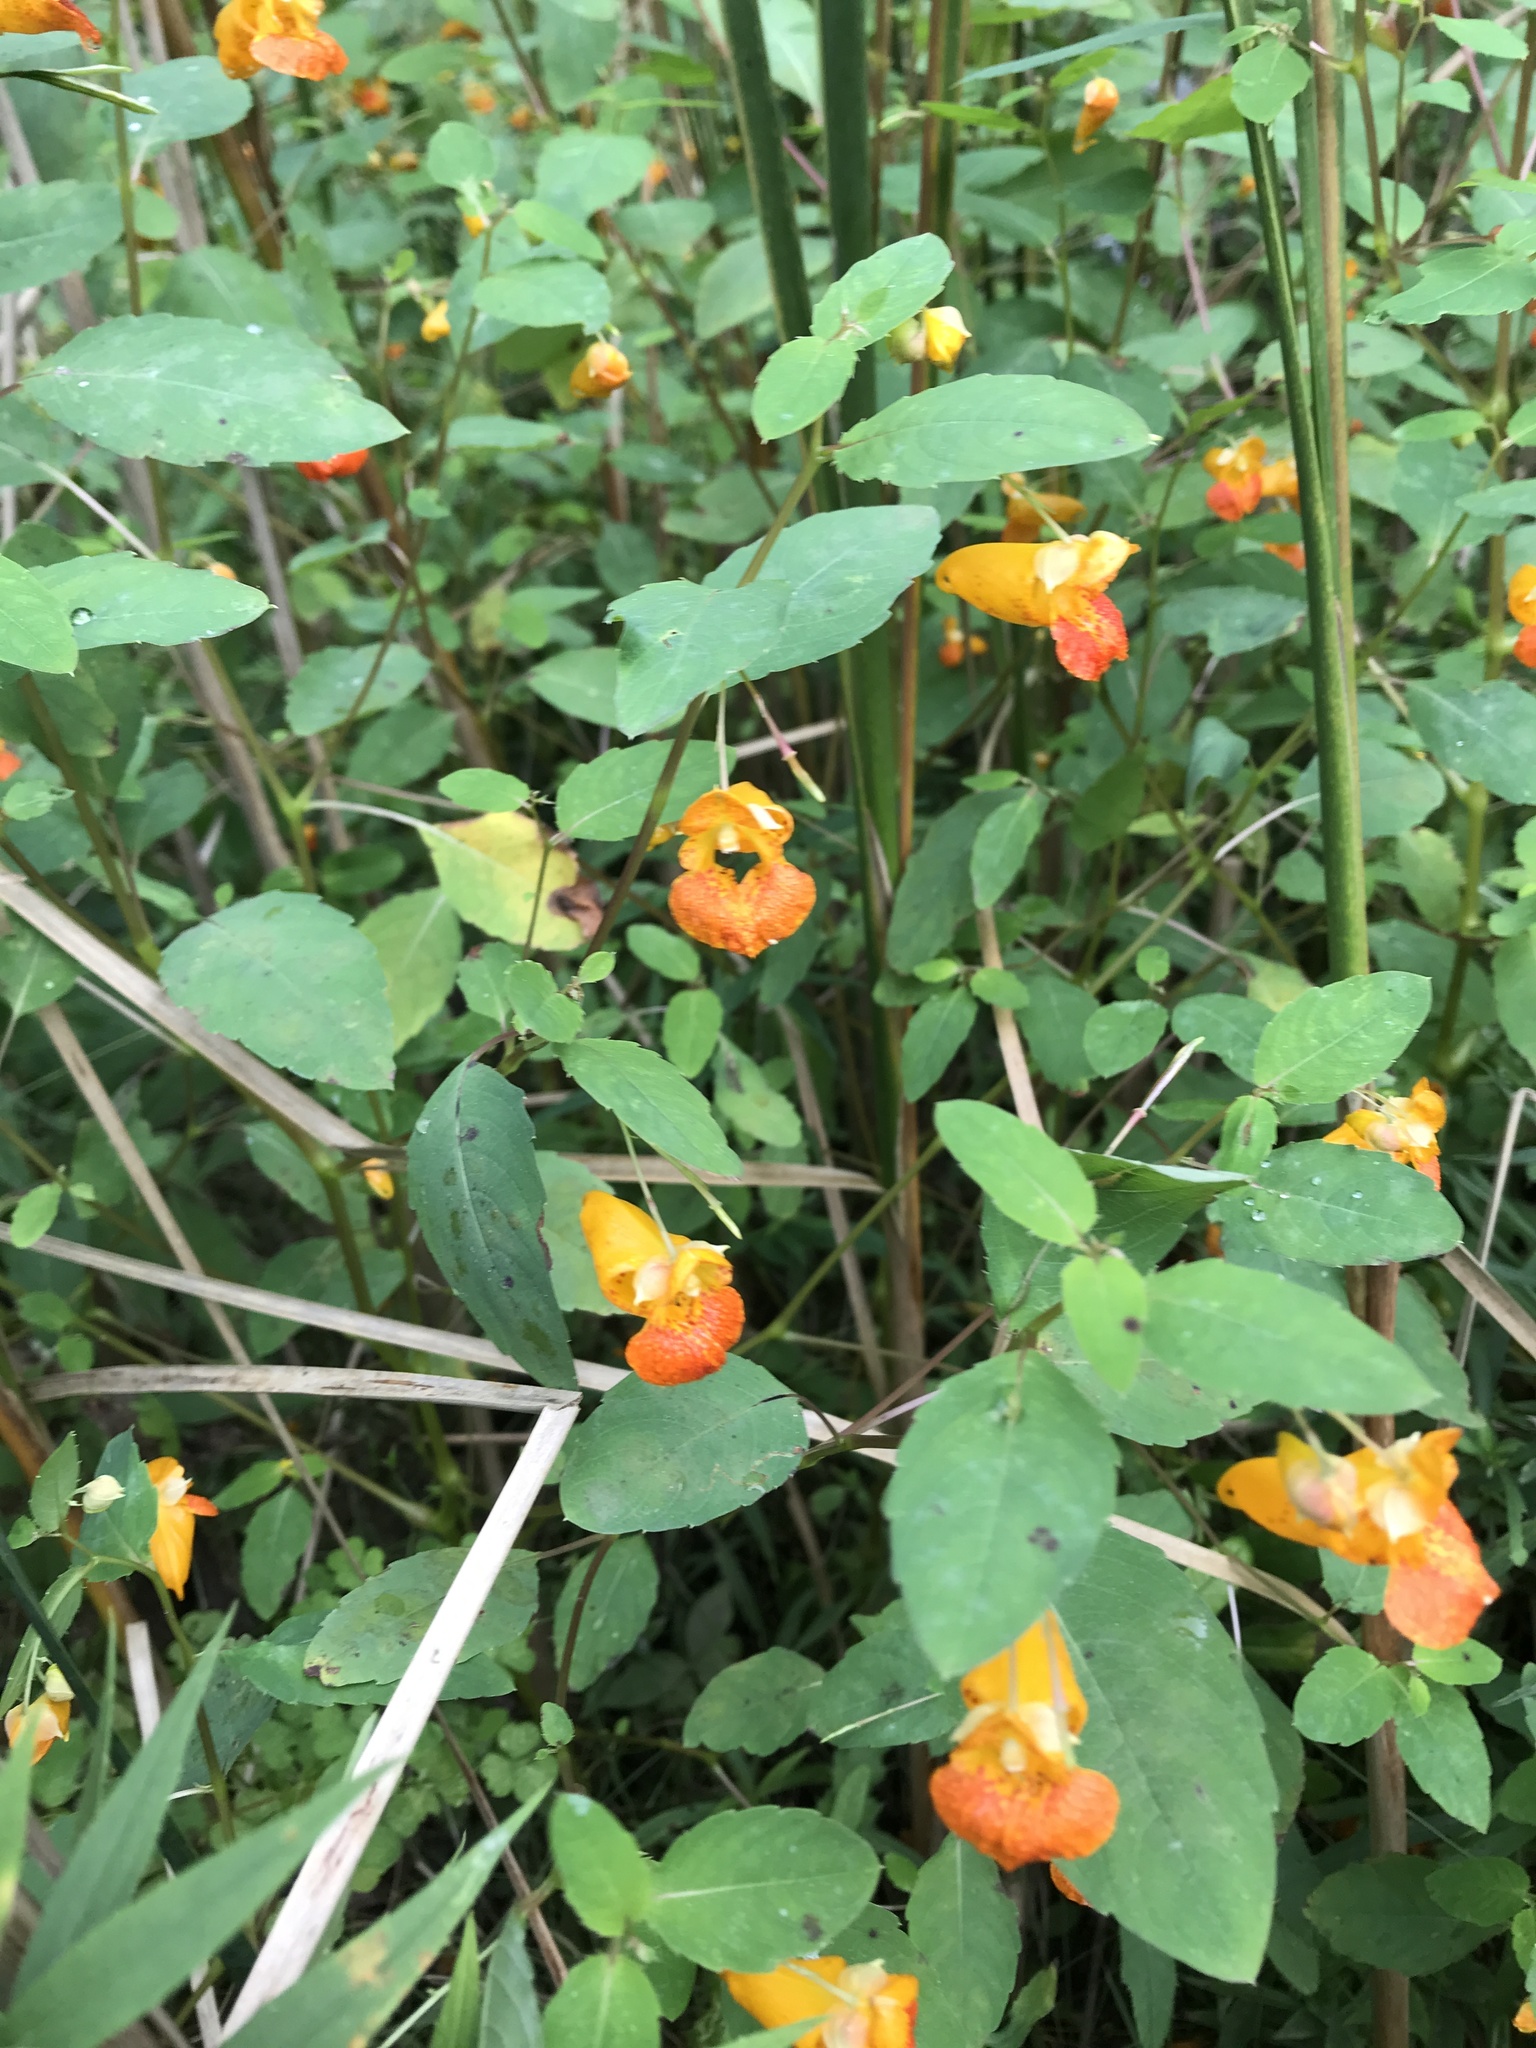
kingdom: Plantae
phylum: Tracheophyta
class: Magnoliopsida
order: Ericales
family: Balsaminaceae
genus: Impatiens
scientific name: Impatiens capensis
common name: Orange balsam
